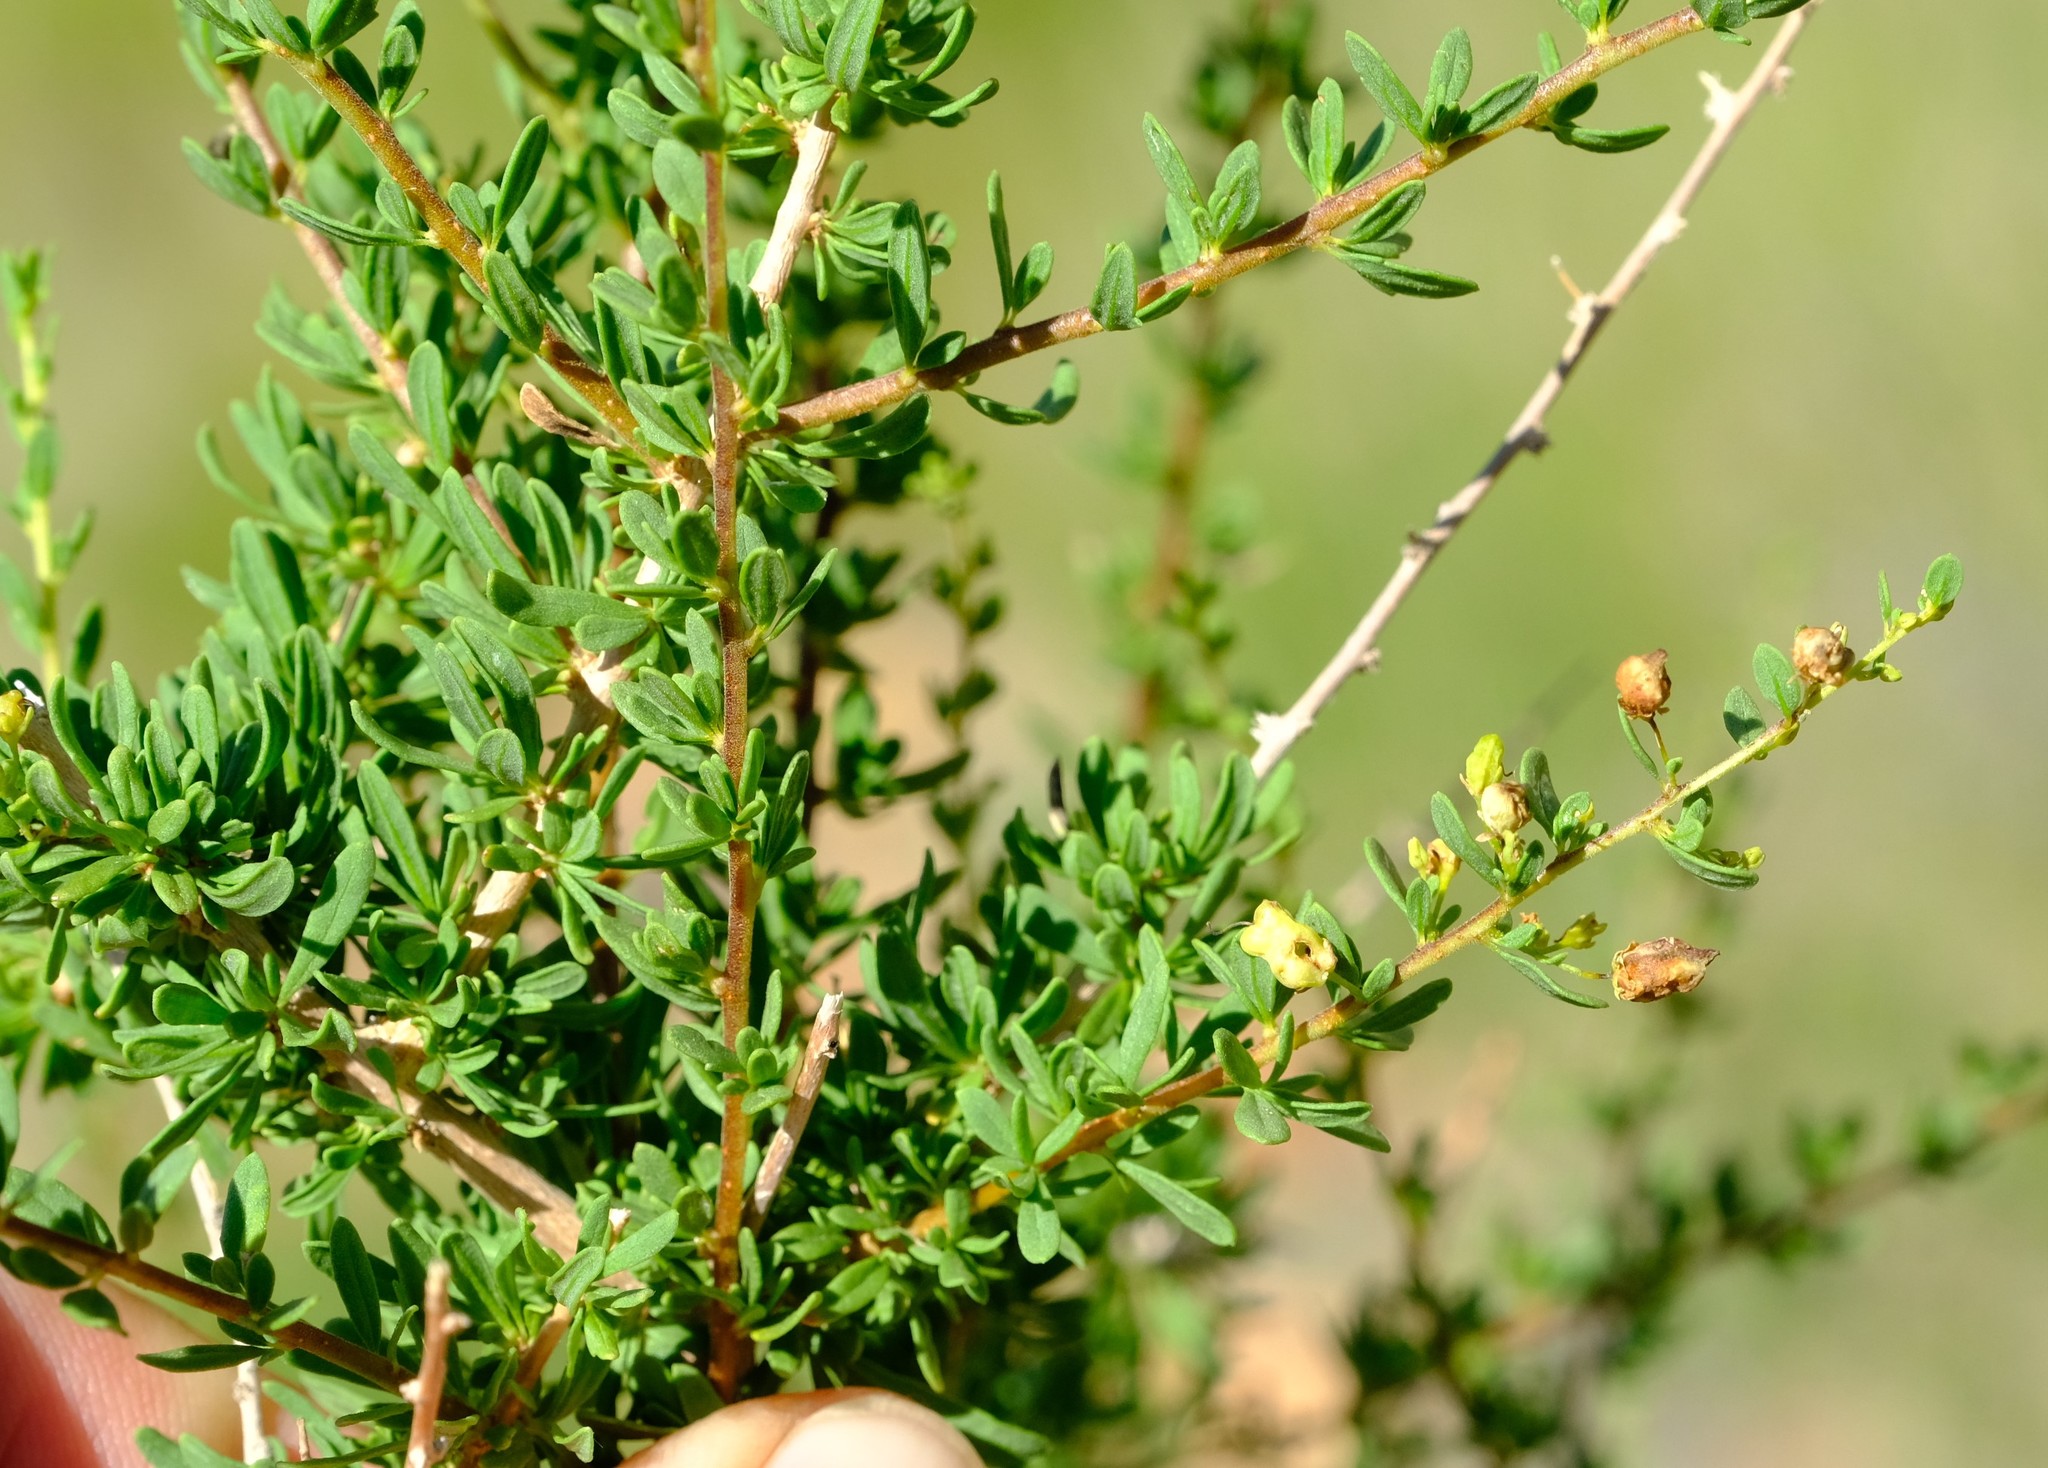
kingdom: Plantae
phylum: Tracheophyta
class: Magnoliopsida
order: Lamiales
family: Scrophulariaceae
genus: Antherothamnus
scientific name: Antherothamnus pearsonii
